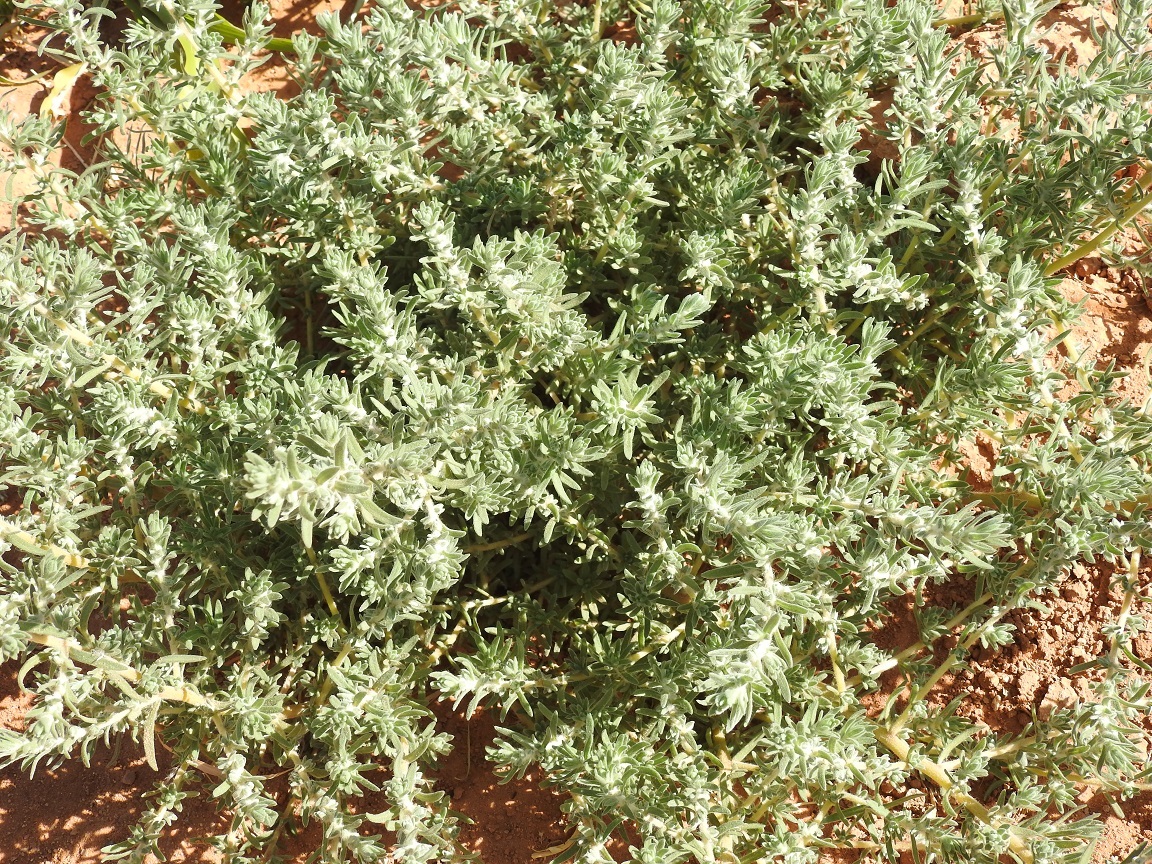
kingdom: Plantae
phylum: Tracheophyta
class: Magnoliopsida
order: Caryophyllales
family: Amaranthaceae
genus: Bassia
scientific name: Bassia muricata
